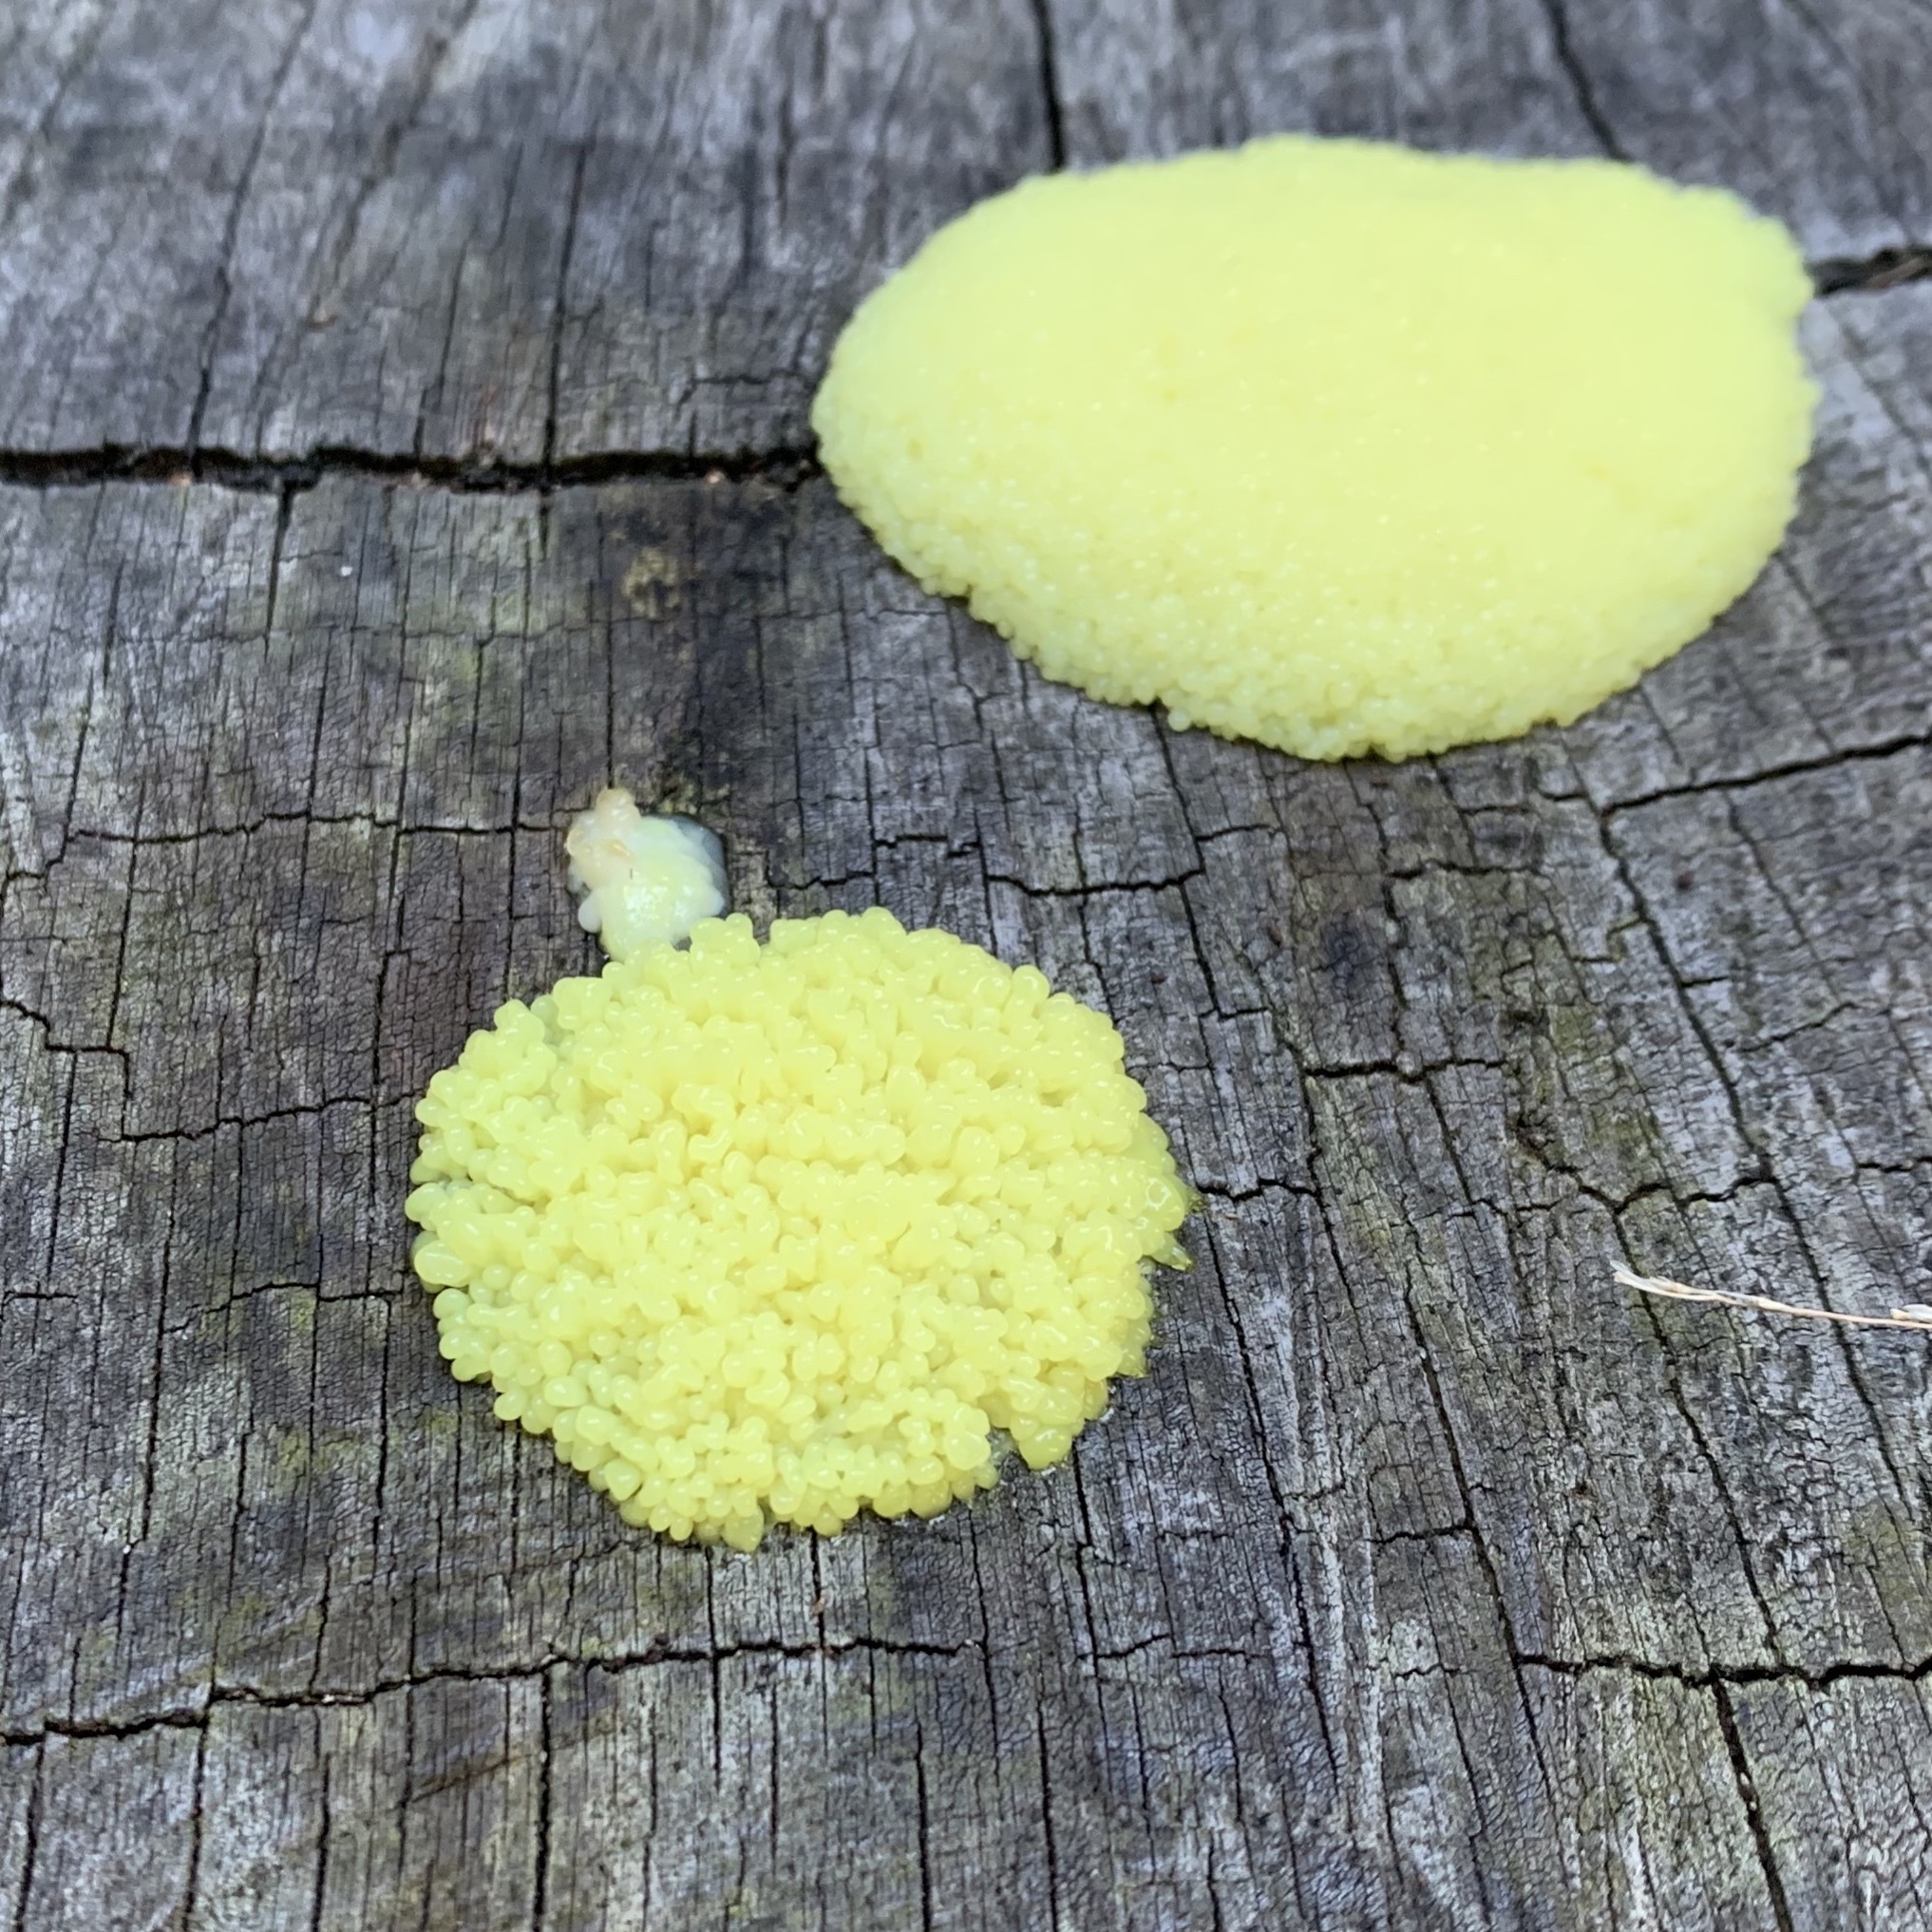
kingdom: Protozoa
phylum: Mycetozoa
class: Myxomycetes
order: Physarales
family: Physaraceae
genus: Fuligo
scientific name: Fuligo septica
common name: Dog vomit slime mold
